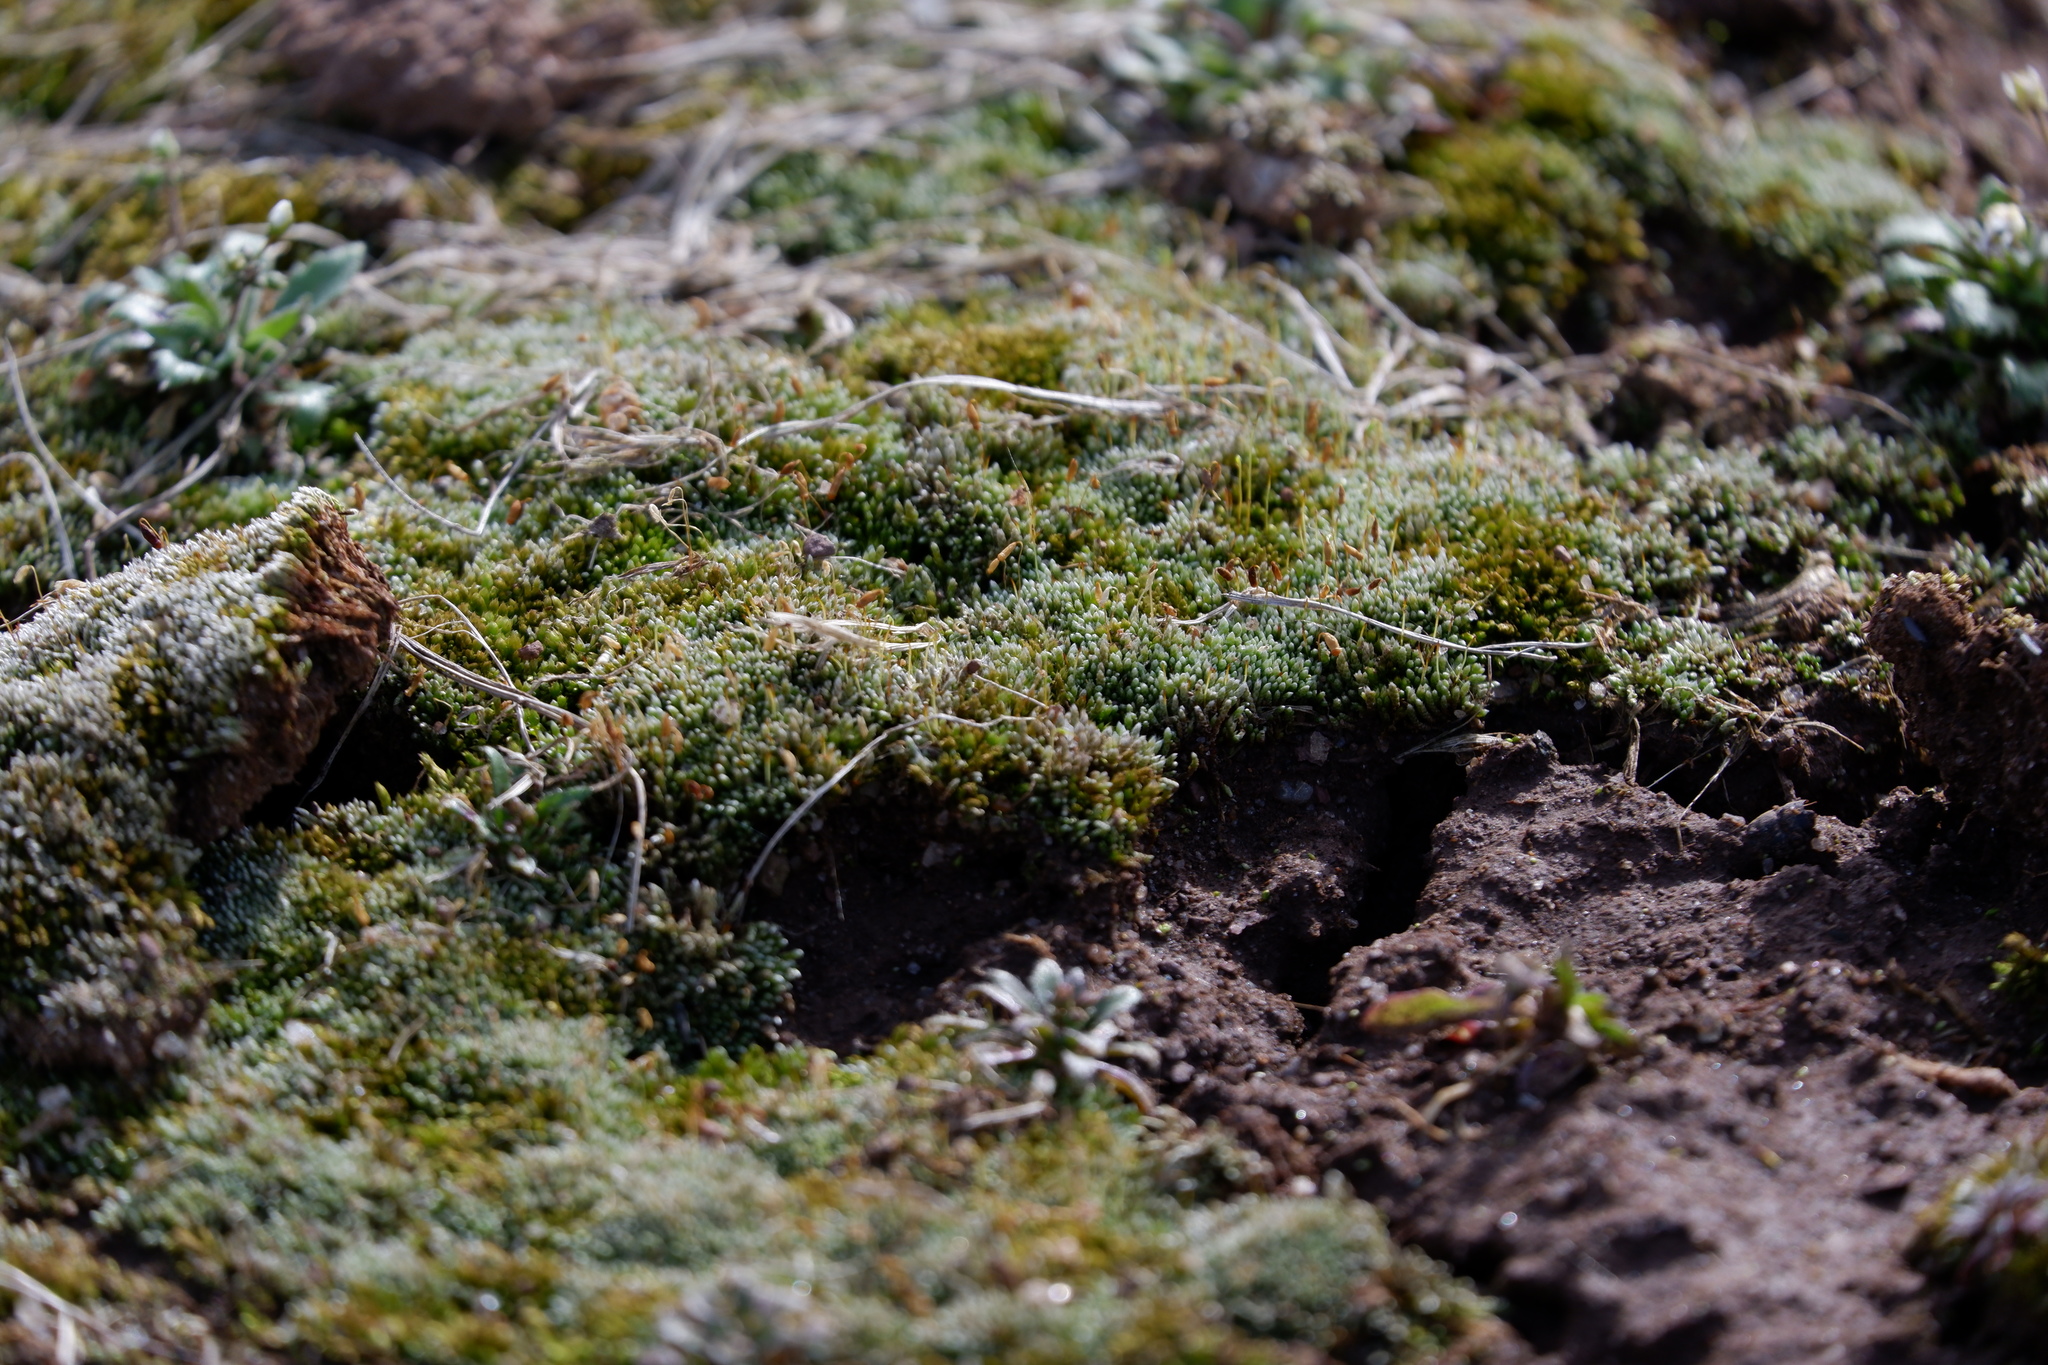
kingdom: Plantae
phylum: Bryophyta
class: Bryopsida
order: Bryales
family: Bryaceae
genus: Bryum
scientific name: Bryum argenteum
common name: Silver-moss
